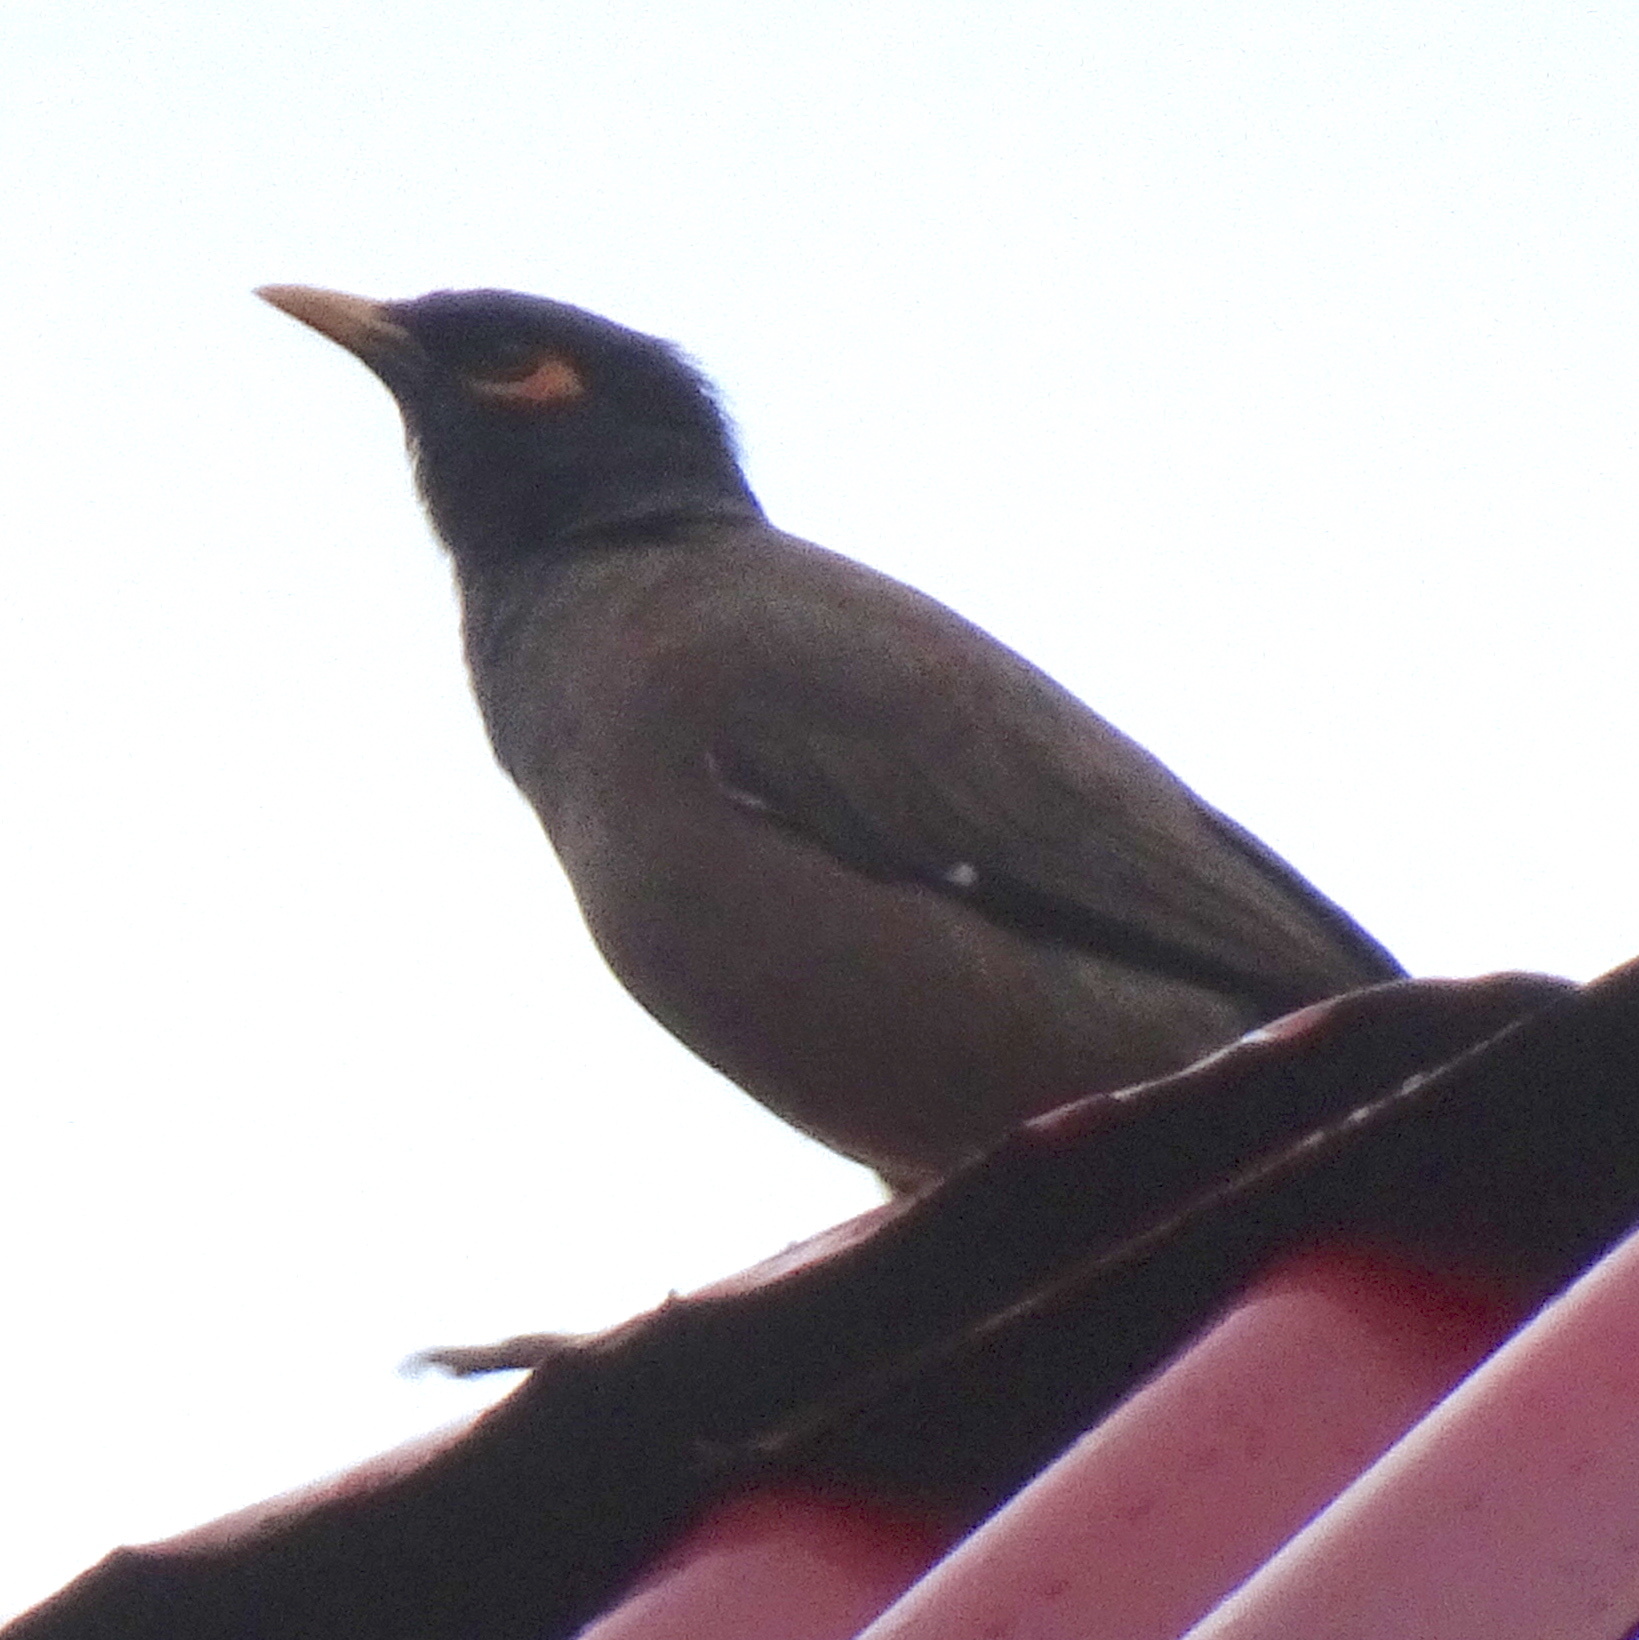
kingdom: Animalia
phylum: Chordata
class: Aves
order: Passeriformes
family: Sturnidae
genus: Acridotheres
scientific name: Acridotheres tristis
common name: Common myna
